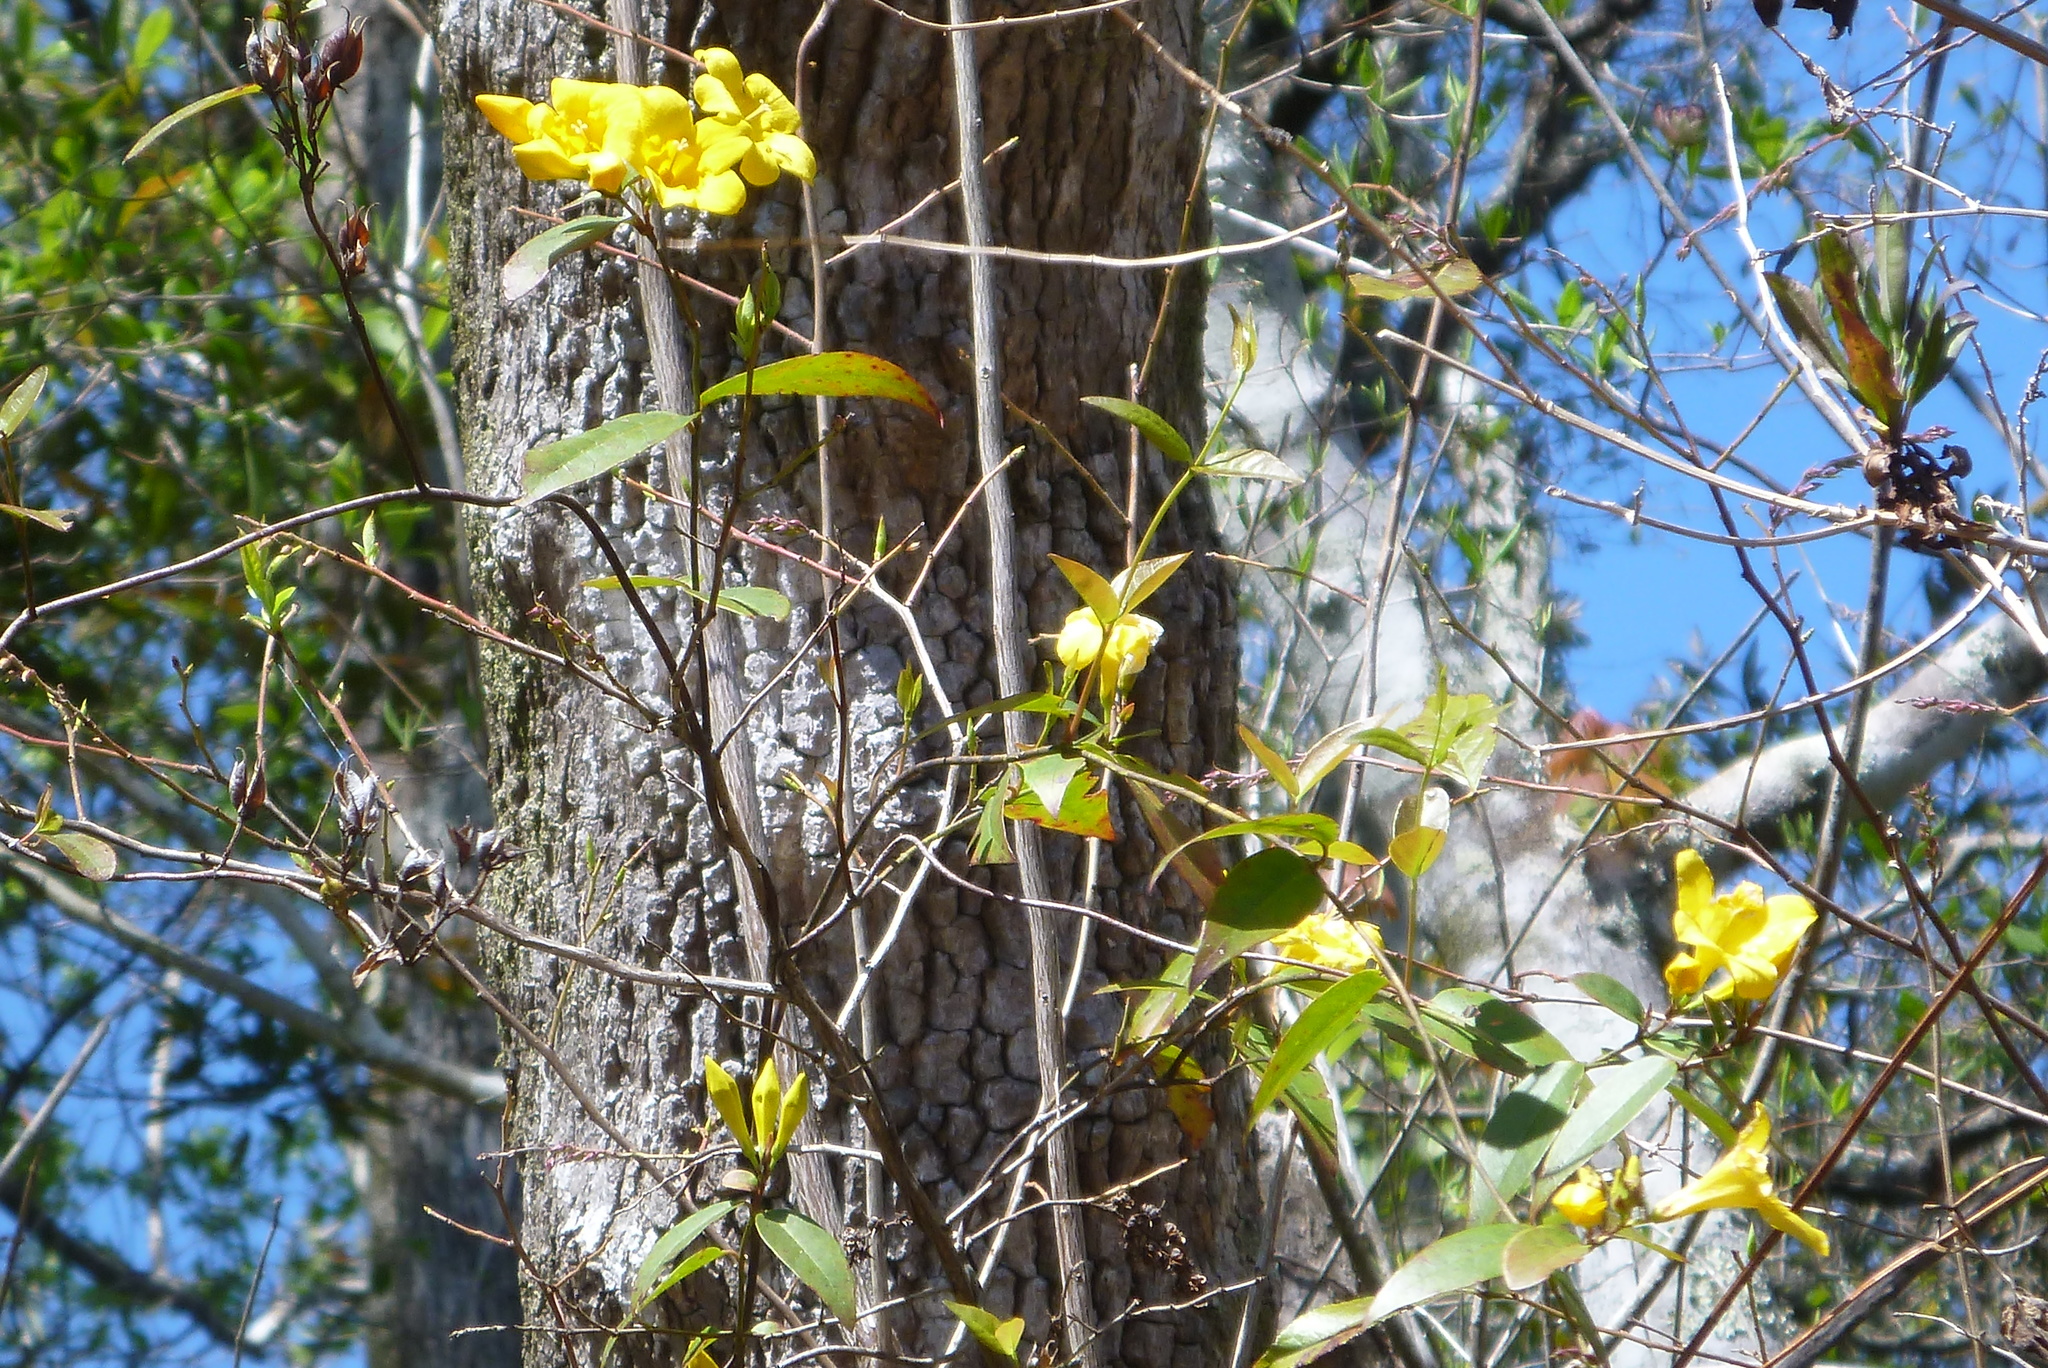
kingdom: Plantae
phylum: Tracheophyta
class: Magnoliopsida
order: Gentianales
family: Gelsemiaceae
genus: Gelsemium
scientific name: Gelsemium rankinii
